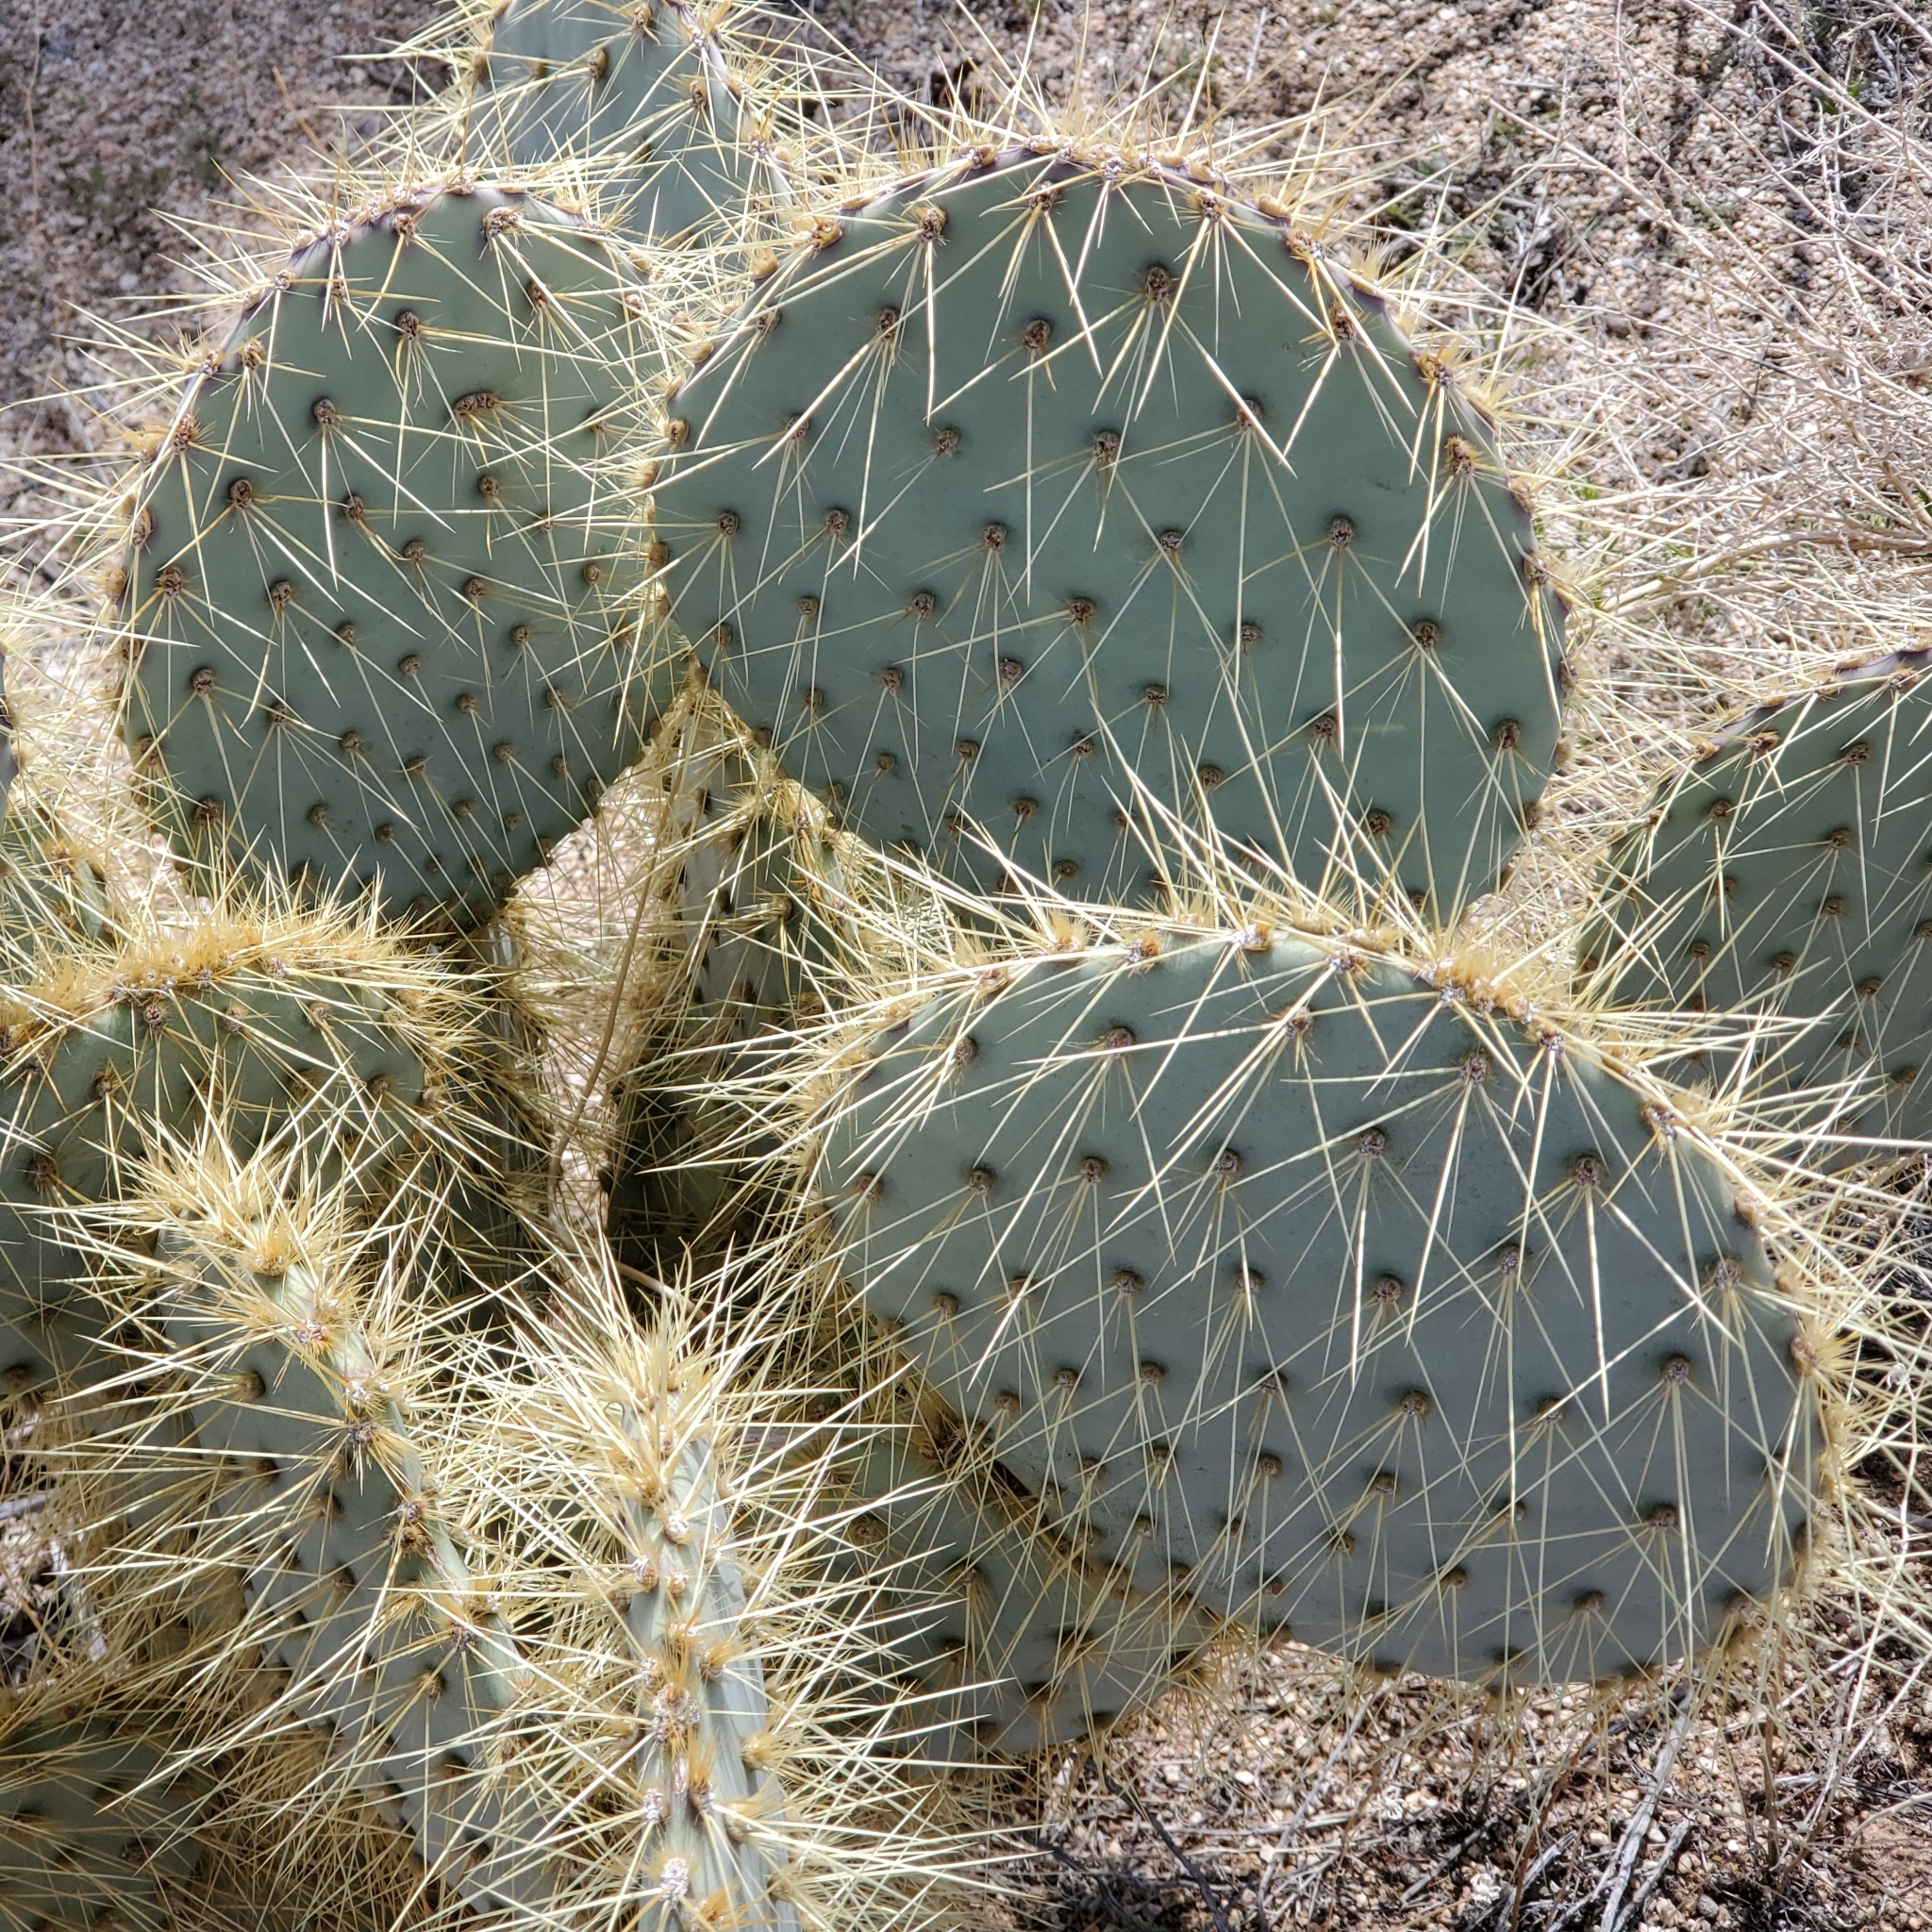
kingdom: Plantae
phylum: Tracheophyta
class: Magnoliopsida
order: Caryophyllales
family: Cactaceae
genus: Opuntia
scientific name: Opuntia chlorotica
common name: Dollar-joint prickly-pear
